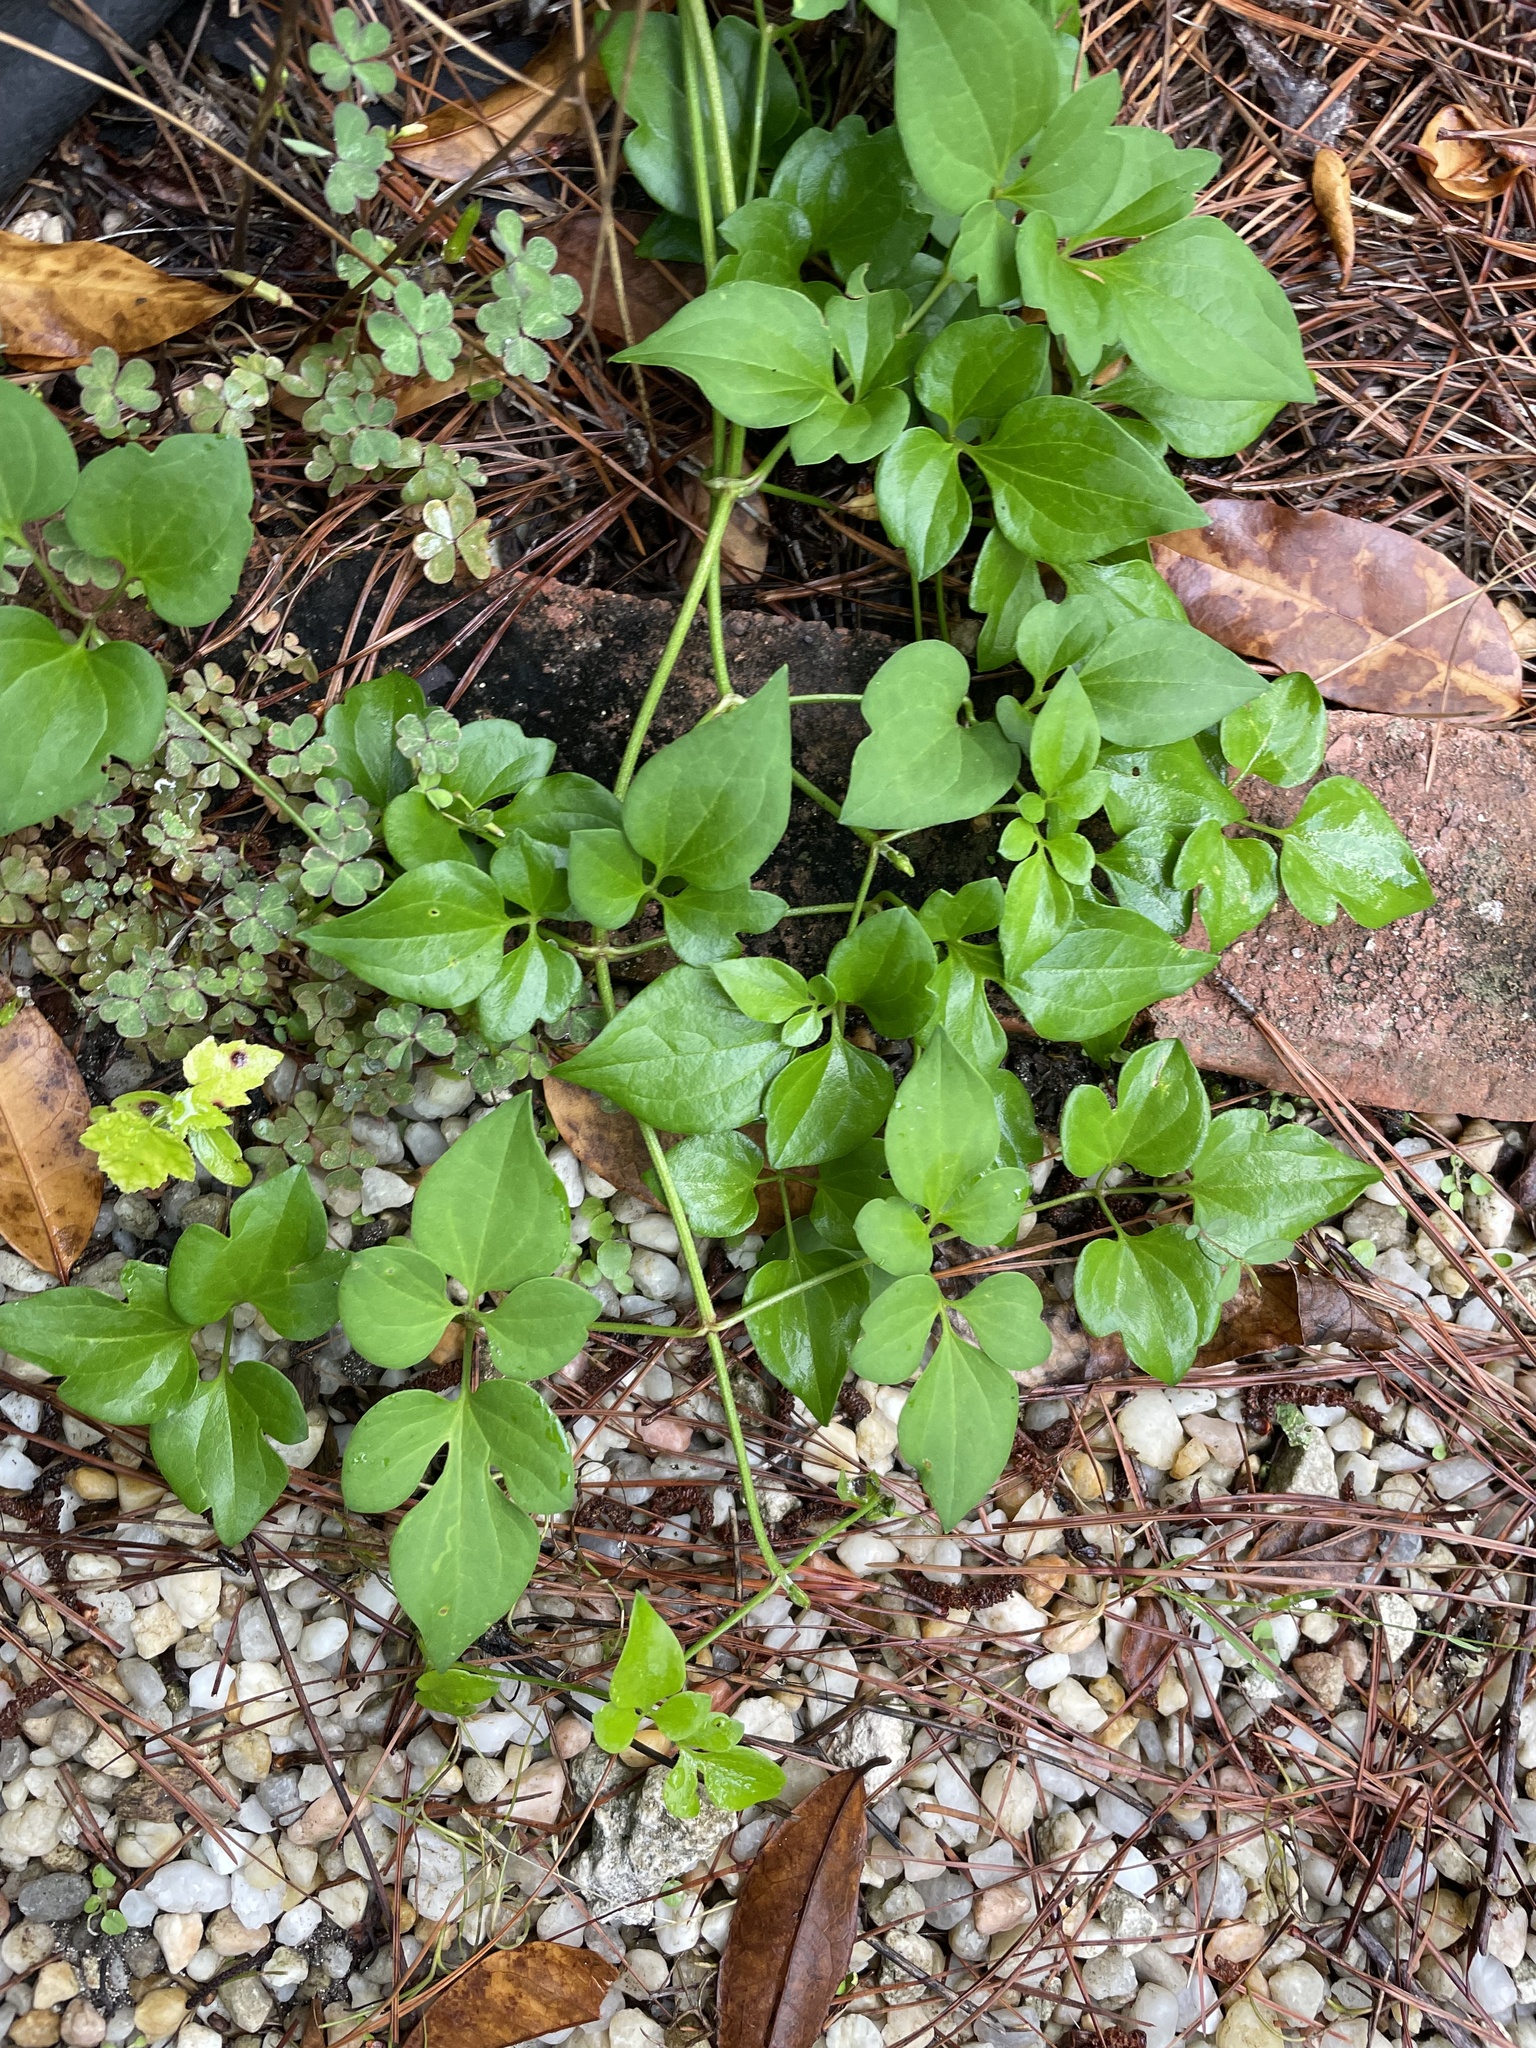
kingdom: Plantae
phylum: Tracheophyta
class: Magnoliopsida
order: Ranunculales
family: Ranunculaceae
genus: Clematis
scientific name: Clematis terniflora
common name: Sweet autumn clematis
